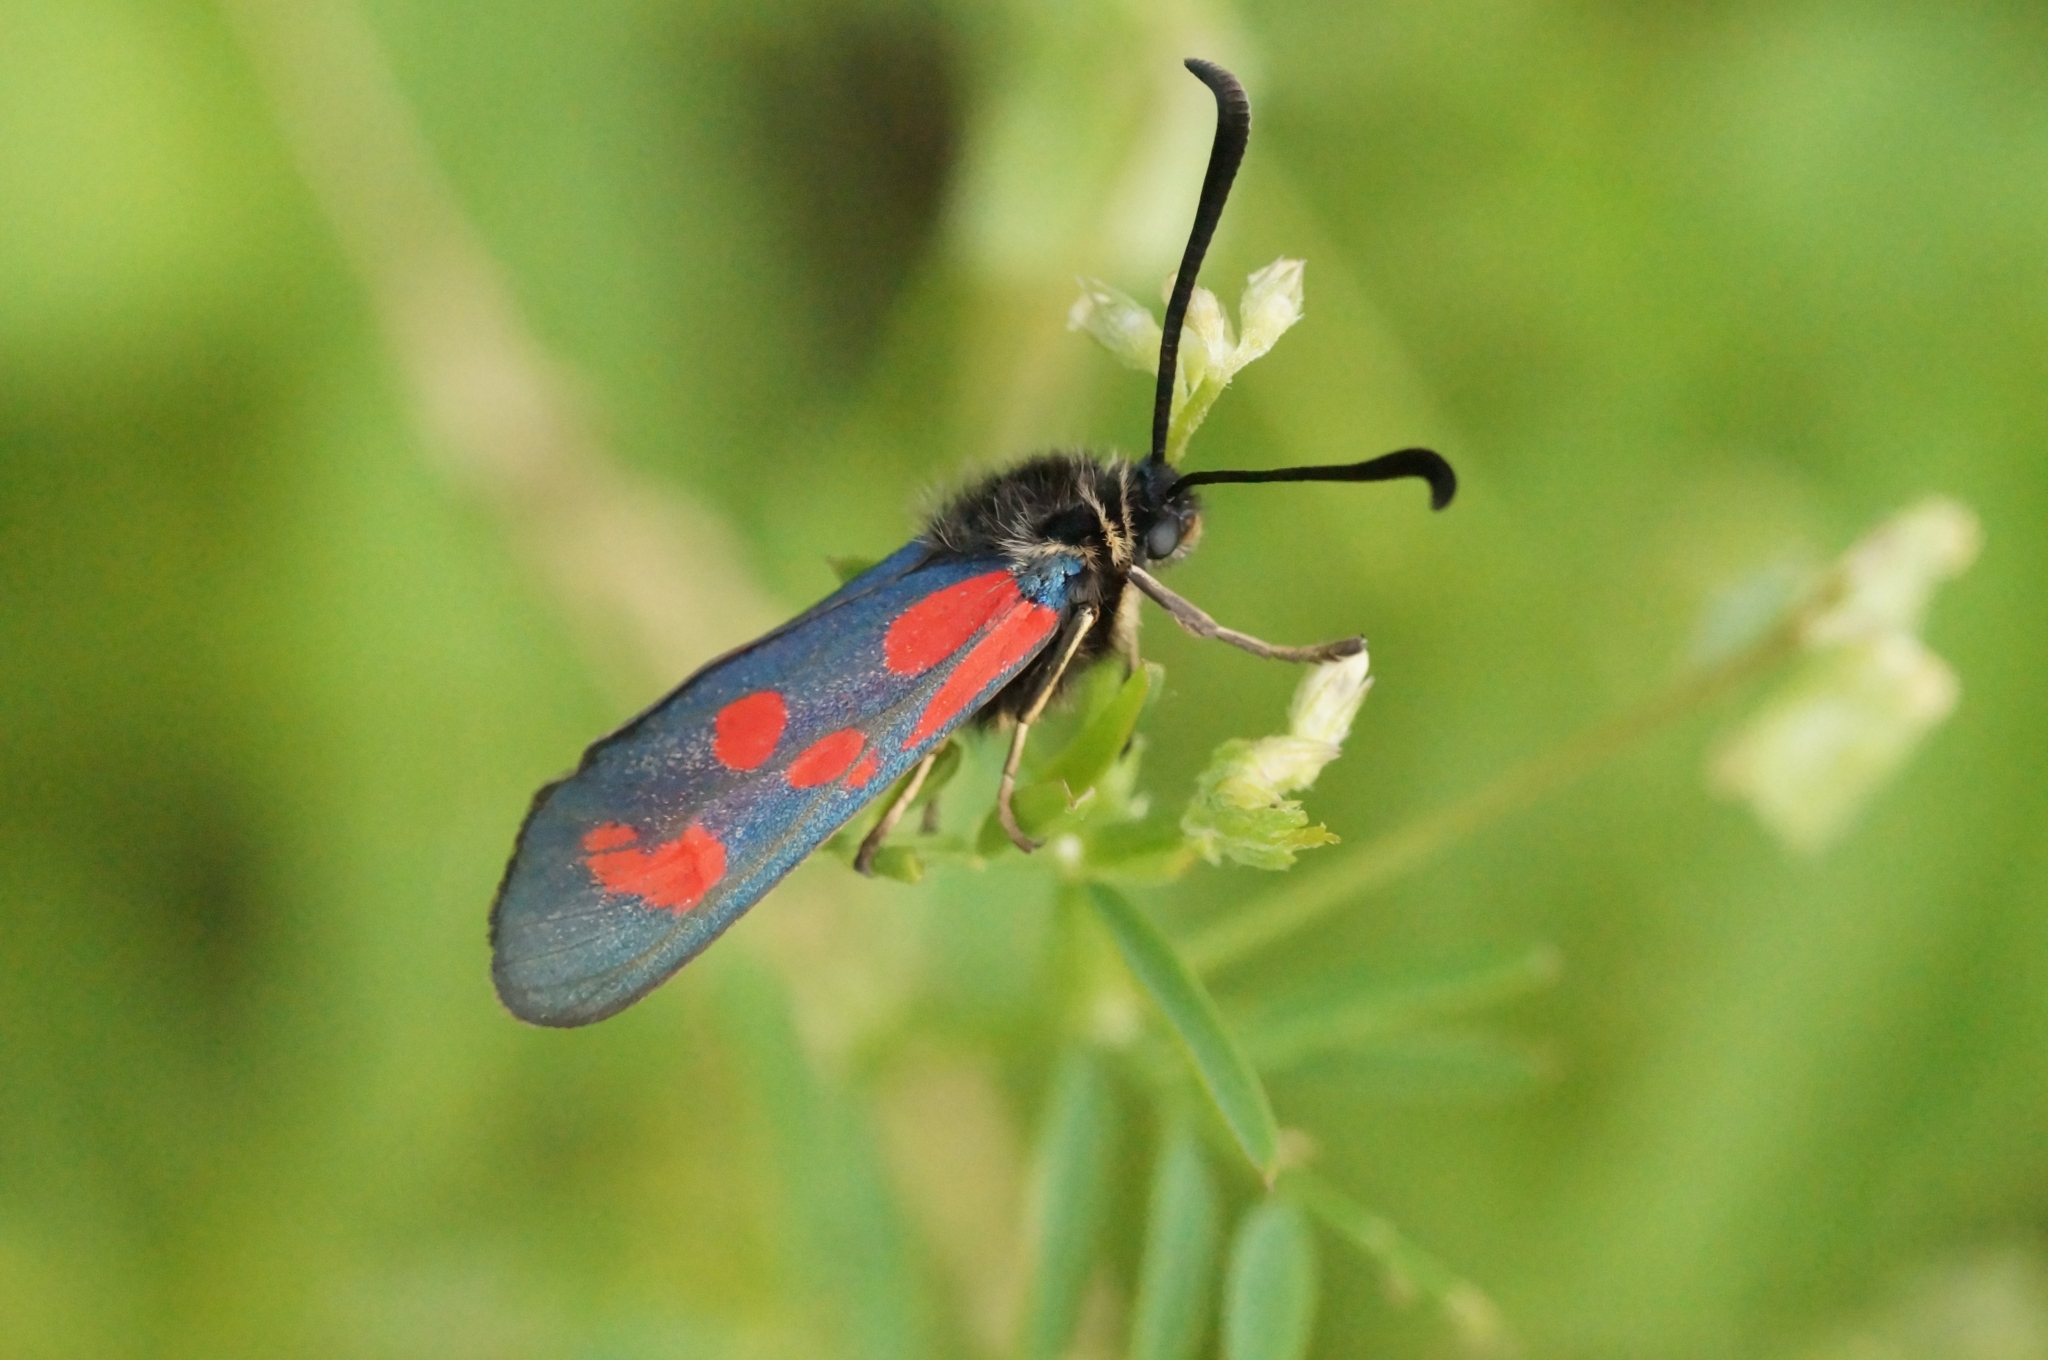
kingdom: Animalia
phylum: Arthropoda
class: Insecta
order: Lepidoptera
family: Zygaenidae
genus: Zygaena
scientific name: Zygaena loti
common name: Slender scotch burnet
